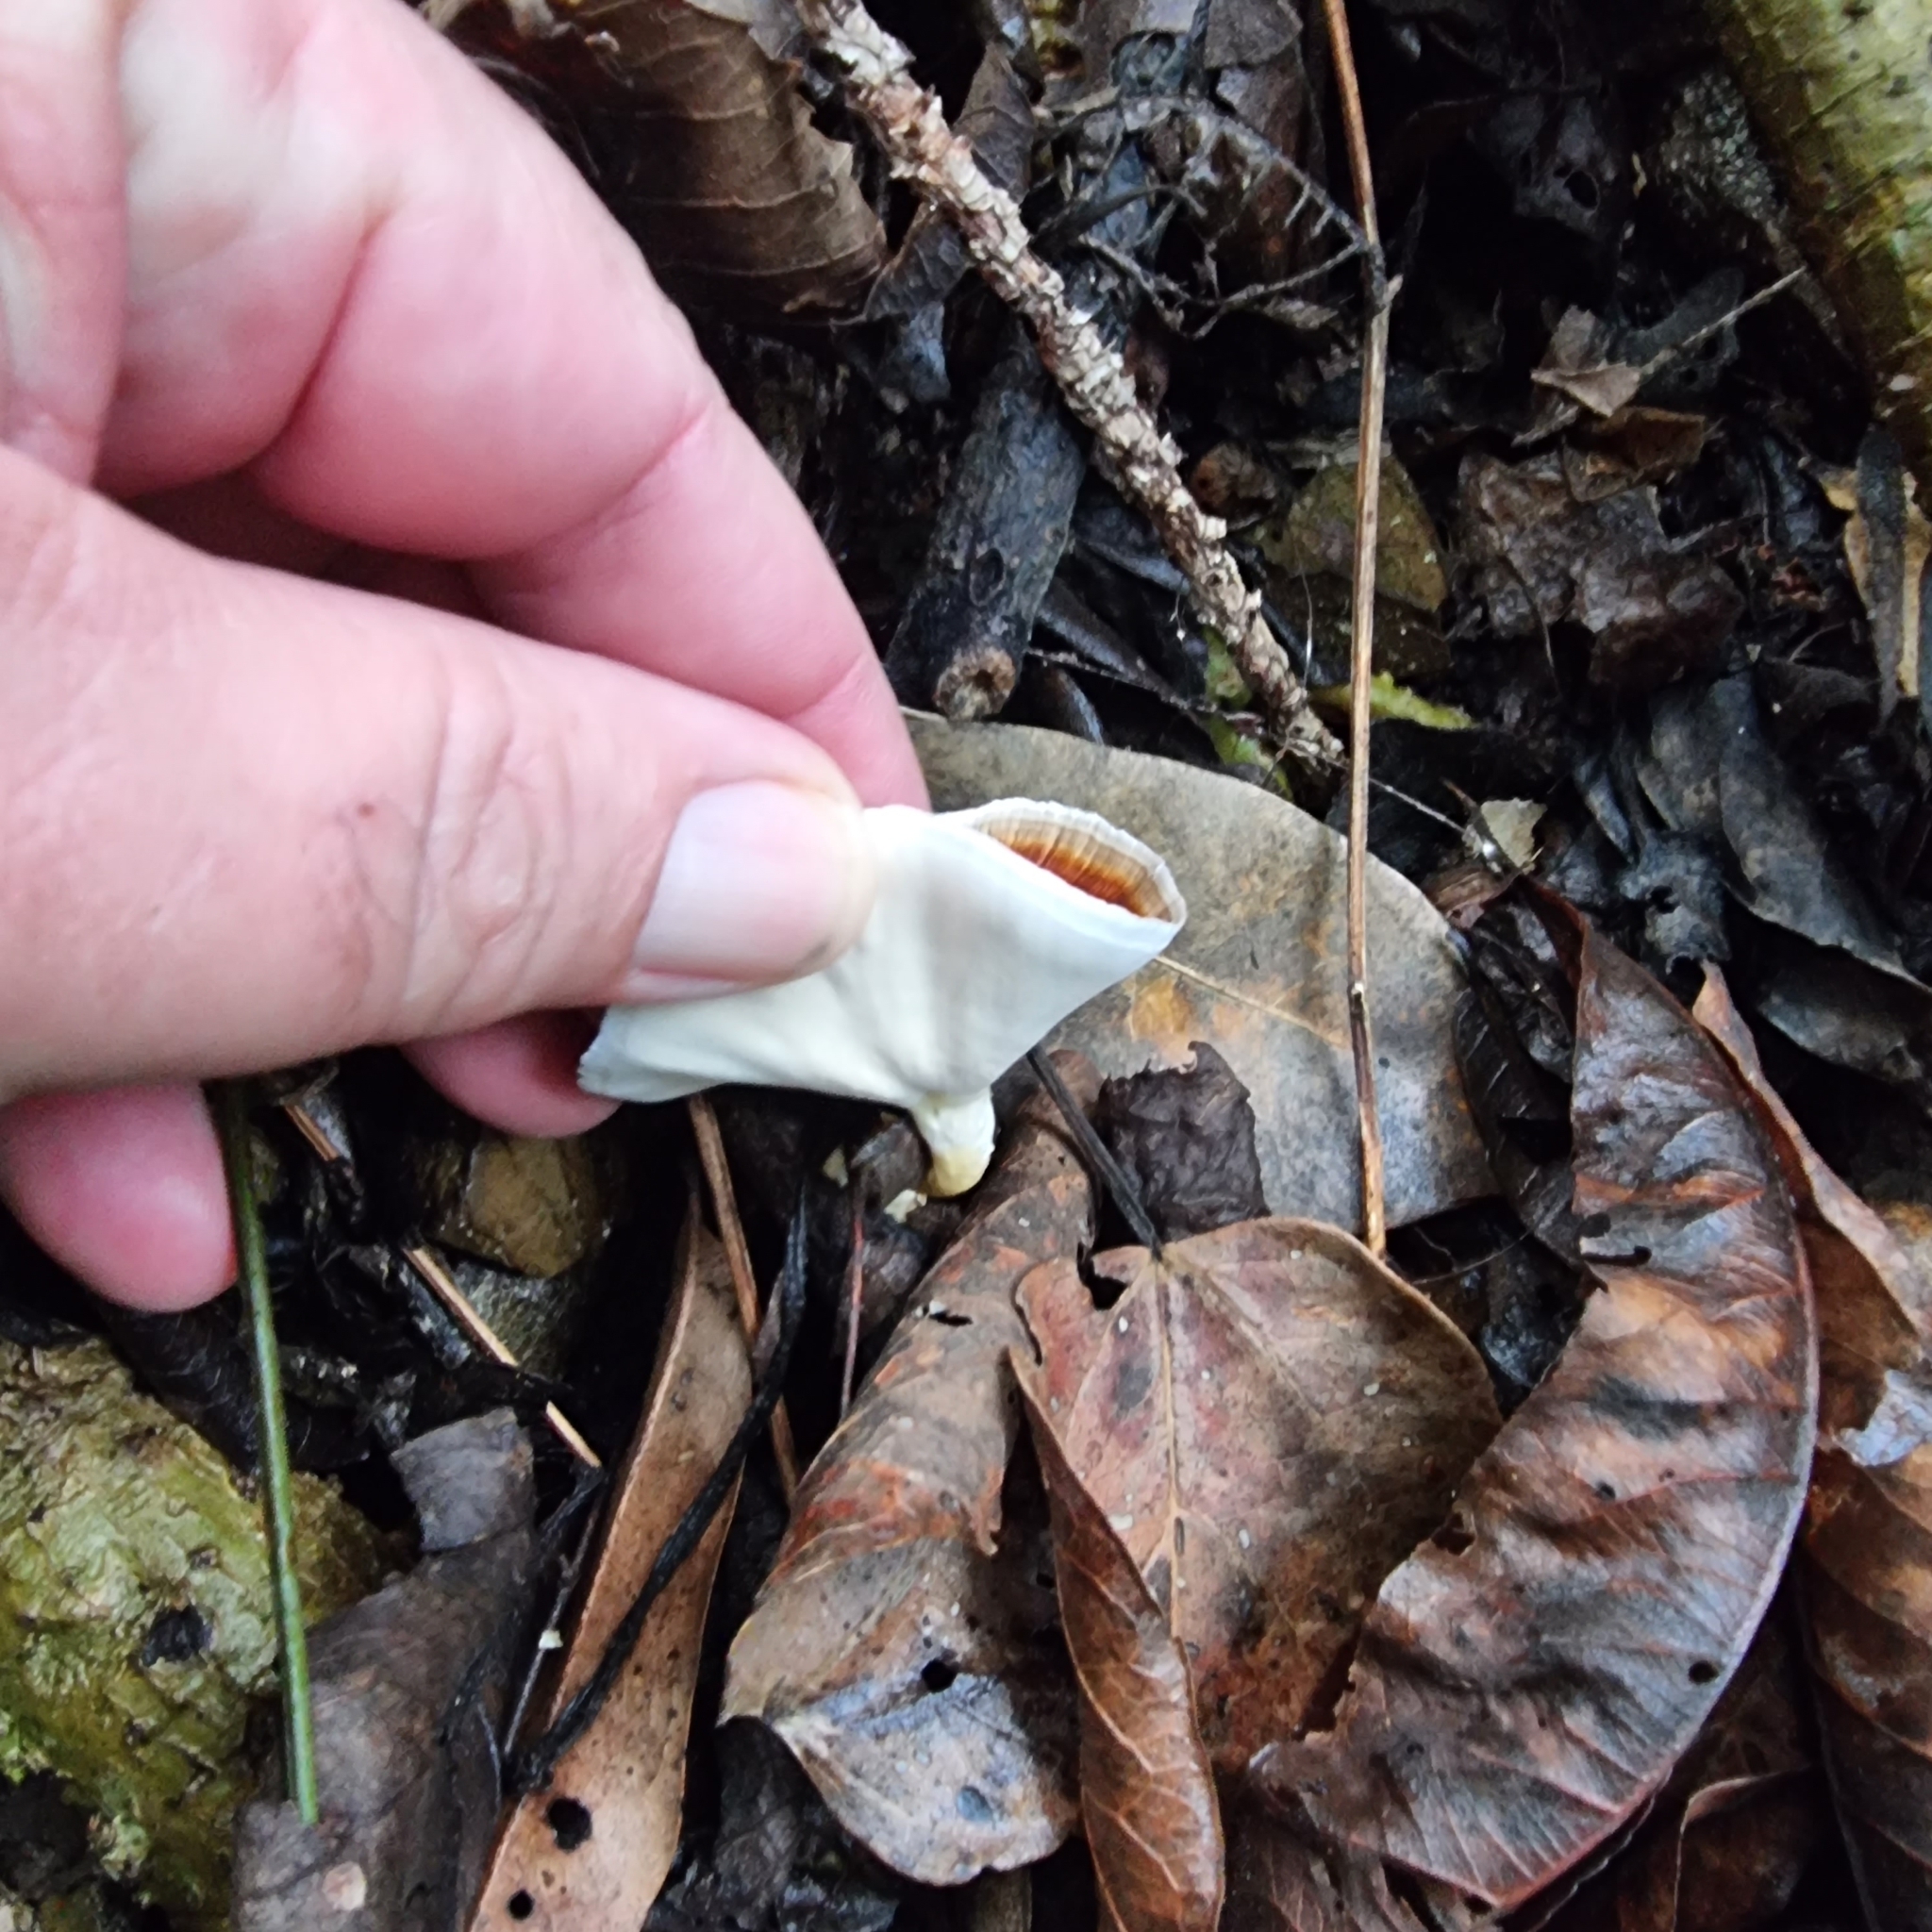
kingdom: Fungi
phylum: Basidiomycota
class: Agaricomycetes
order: Polyporales
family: Polyporaceae
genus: Microporus
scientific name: Microporus xanthopus
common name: Yellow-stemmed micropore
